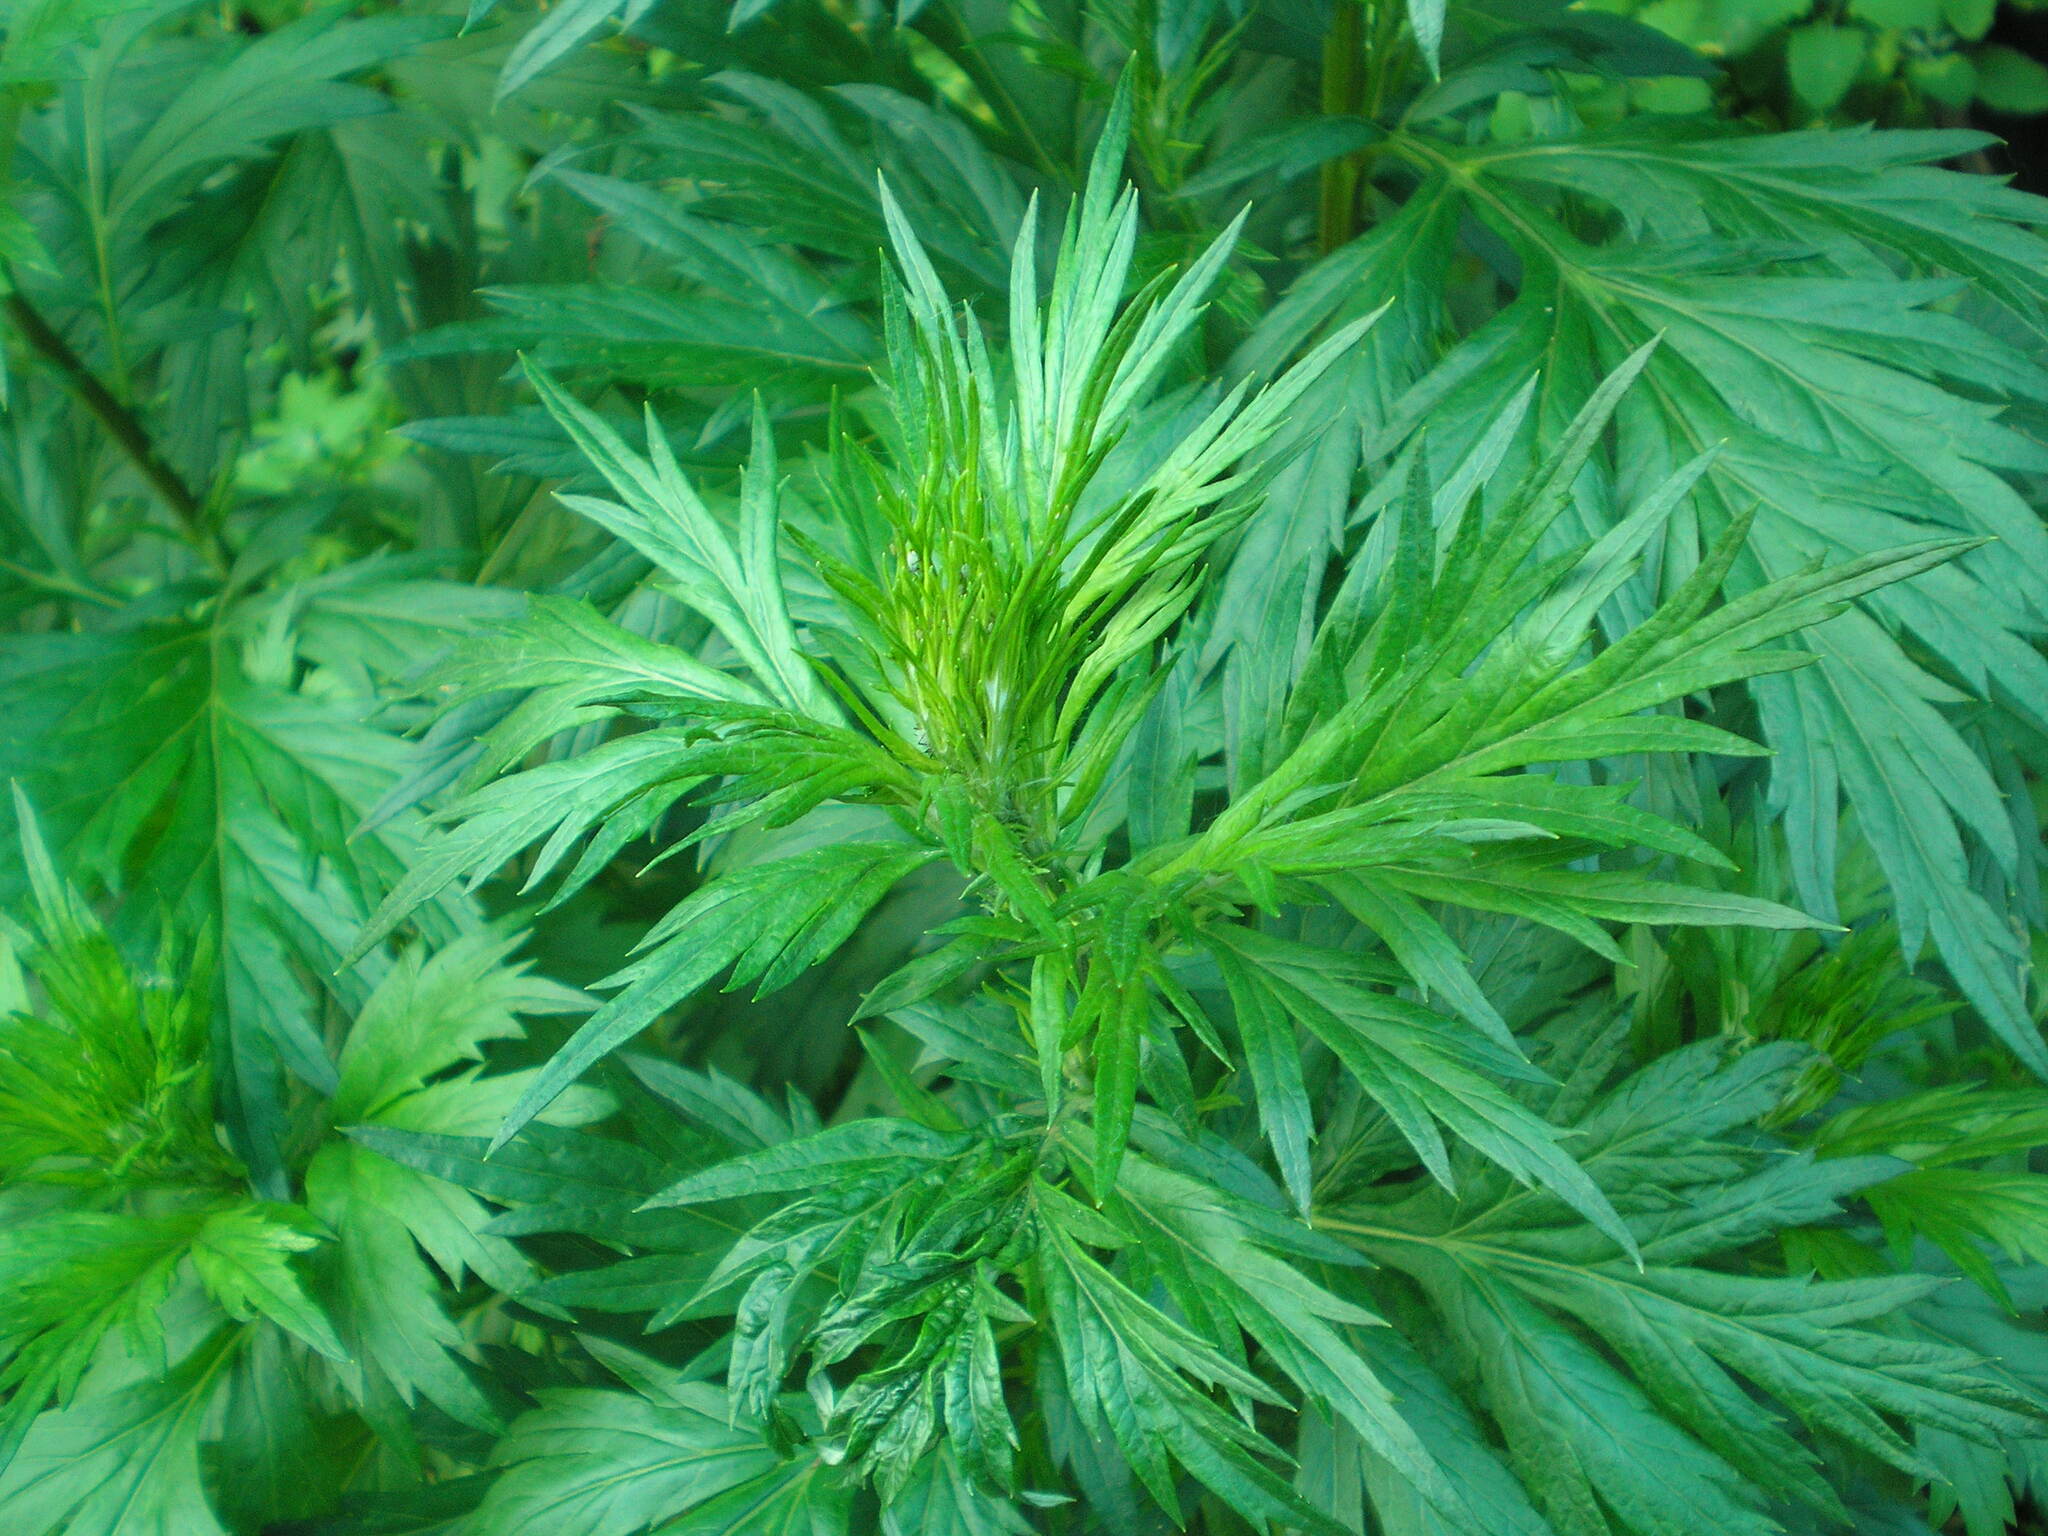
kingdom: Plantae
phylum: Tracheophyta
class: Magnoliopsida
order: Asterales
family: Asteraceae
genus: Artemisia
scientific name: Artemisia vulgaris
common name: Mugwort
